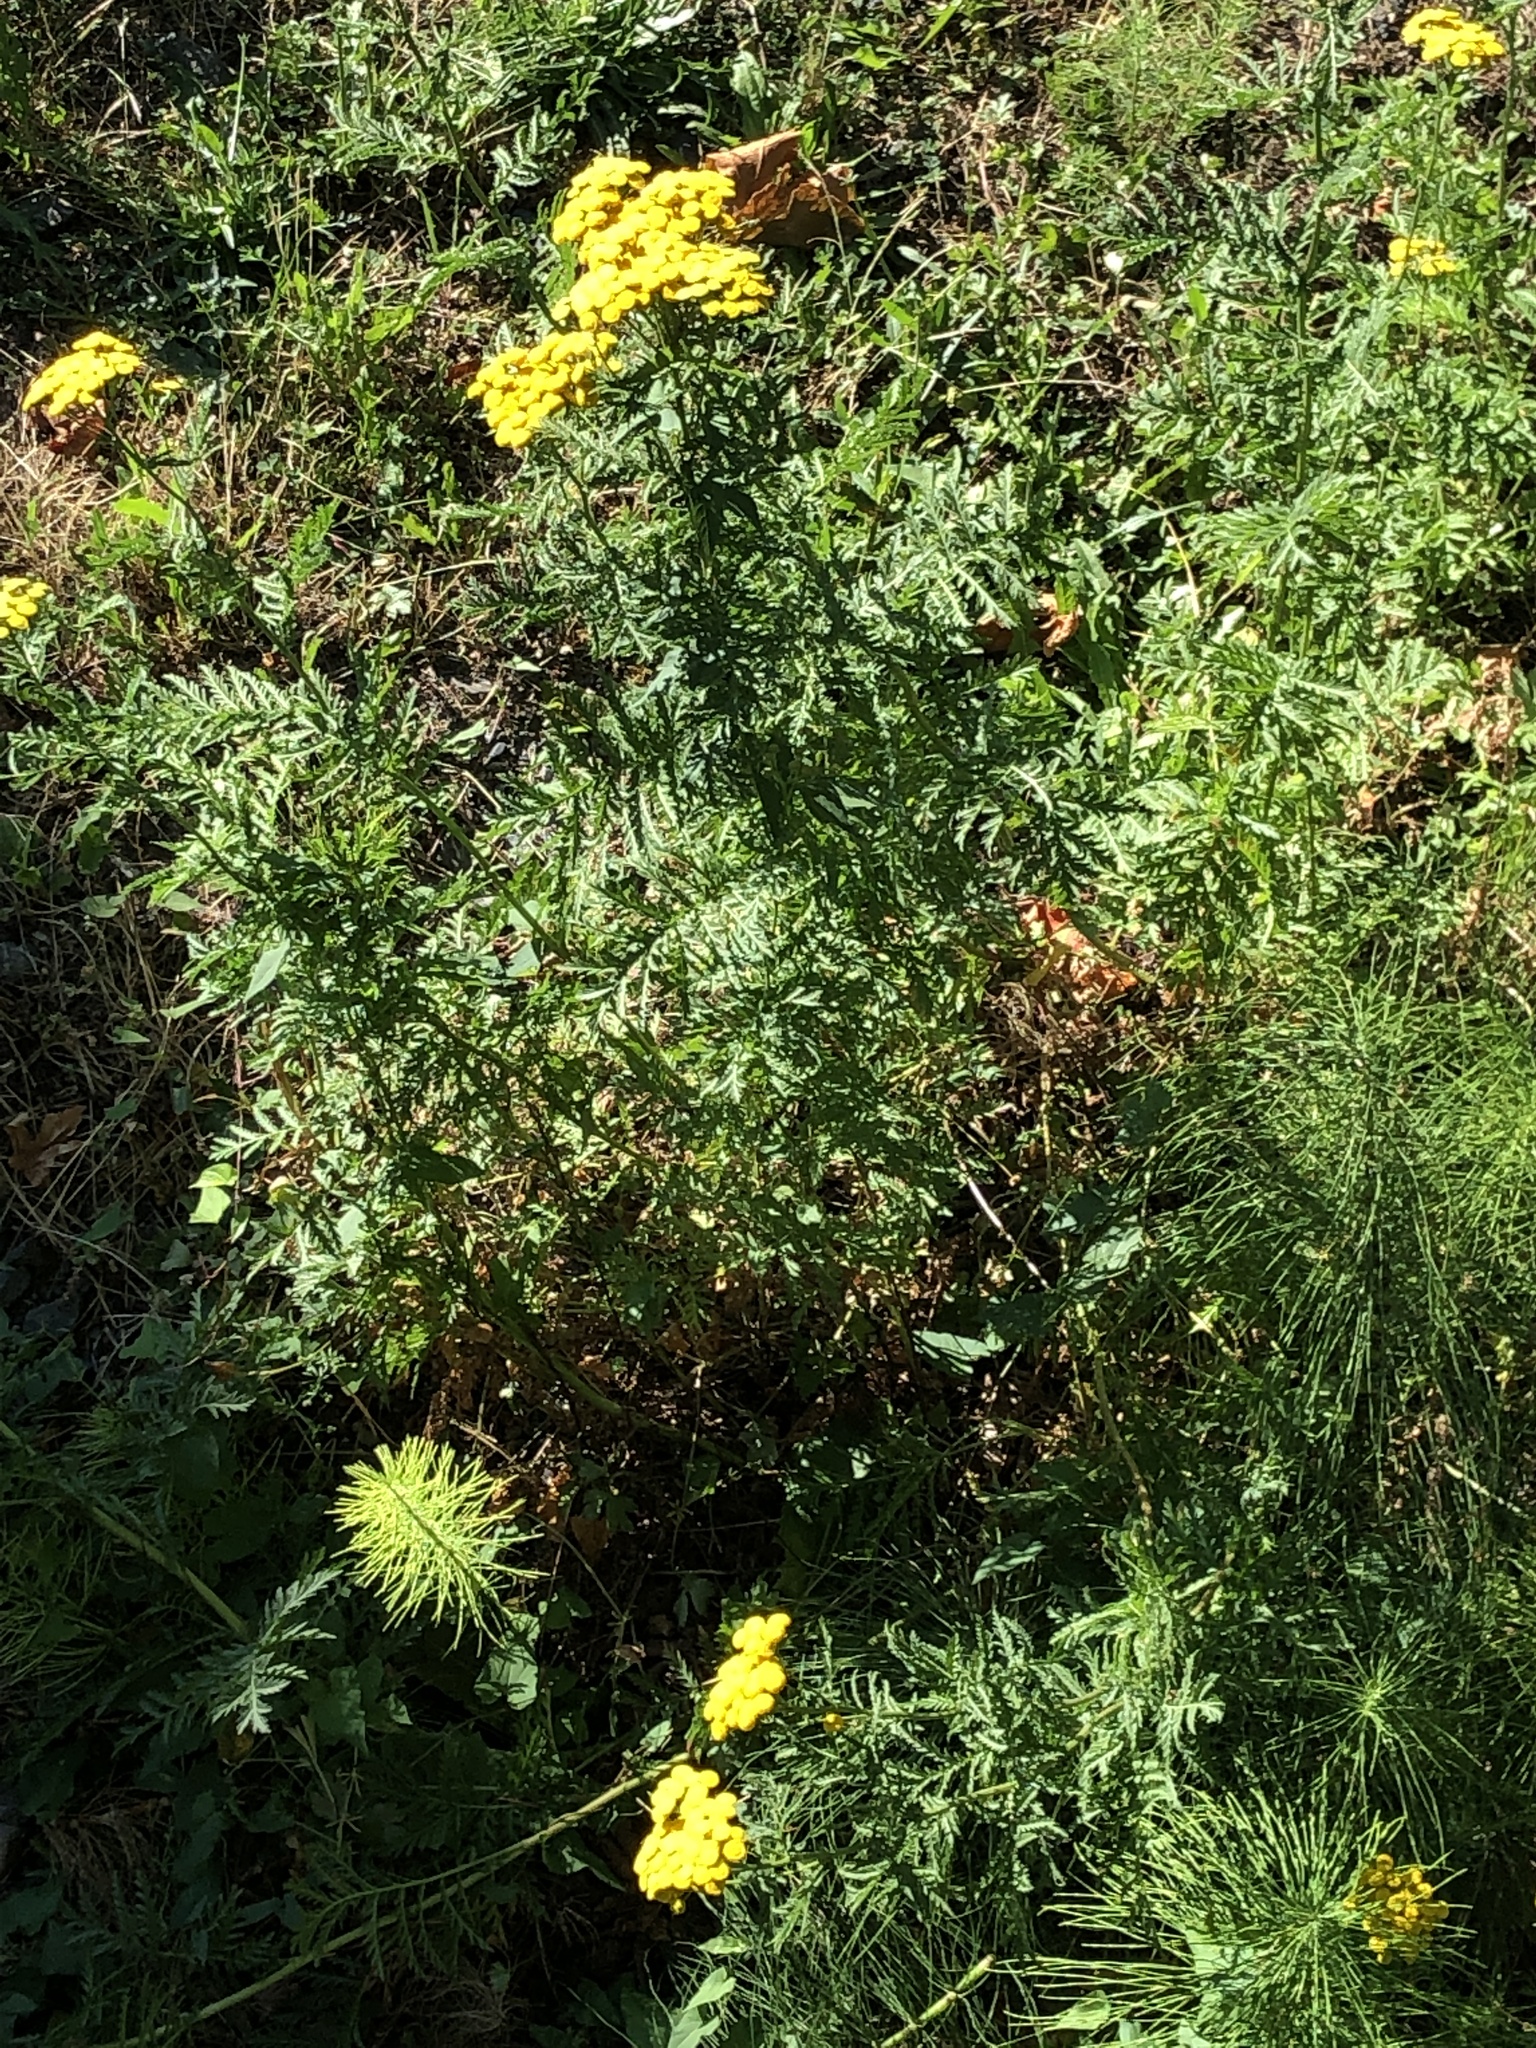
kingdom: Plantae
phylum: Tracheophyta
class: Magnoliopsida
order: Asterales
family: Asteraceae
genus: Tanacetum
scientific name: Tanacetum vulgare
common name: Common tansy
